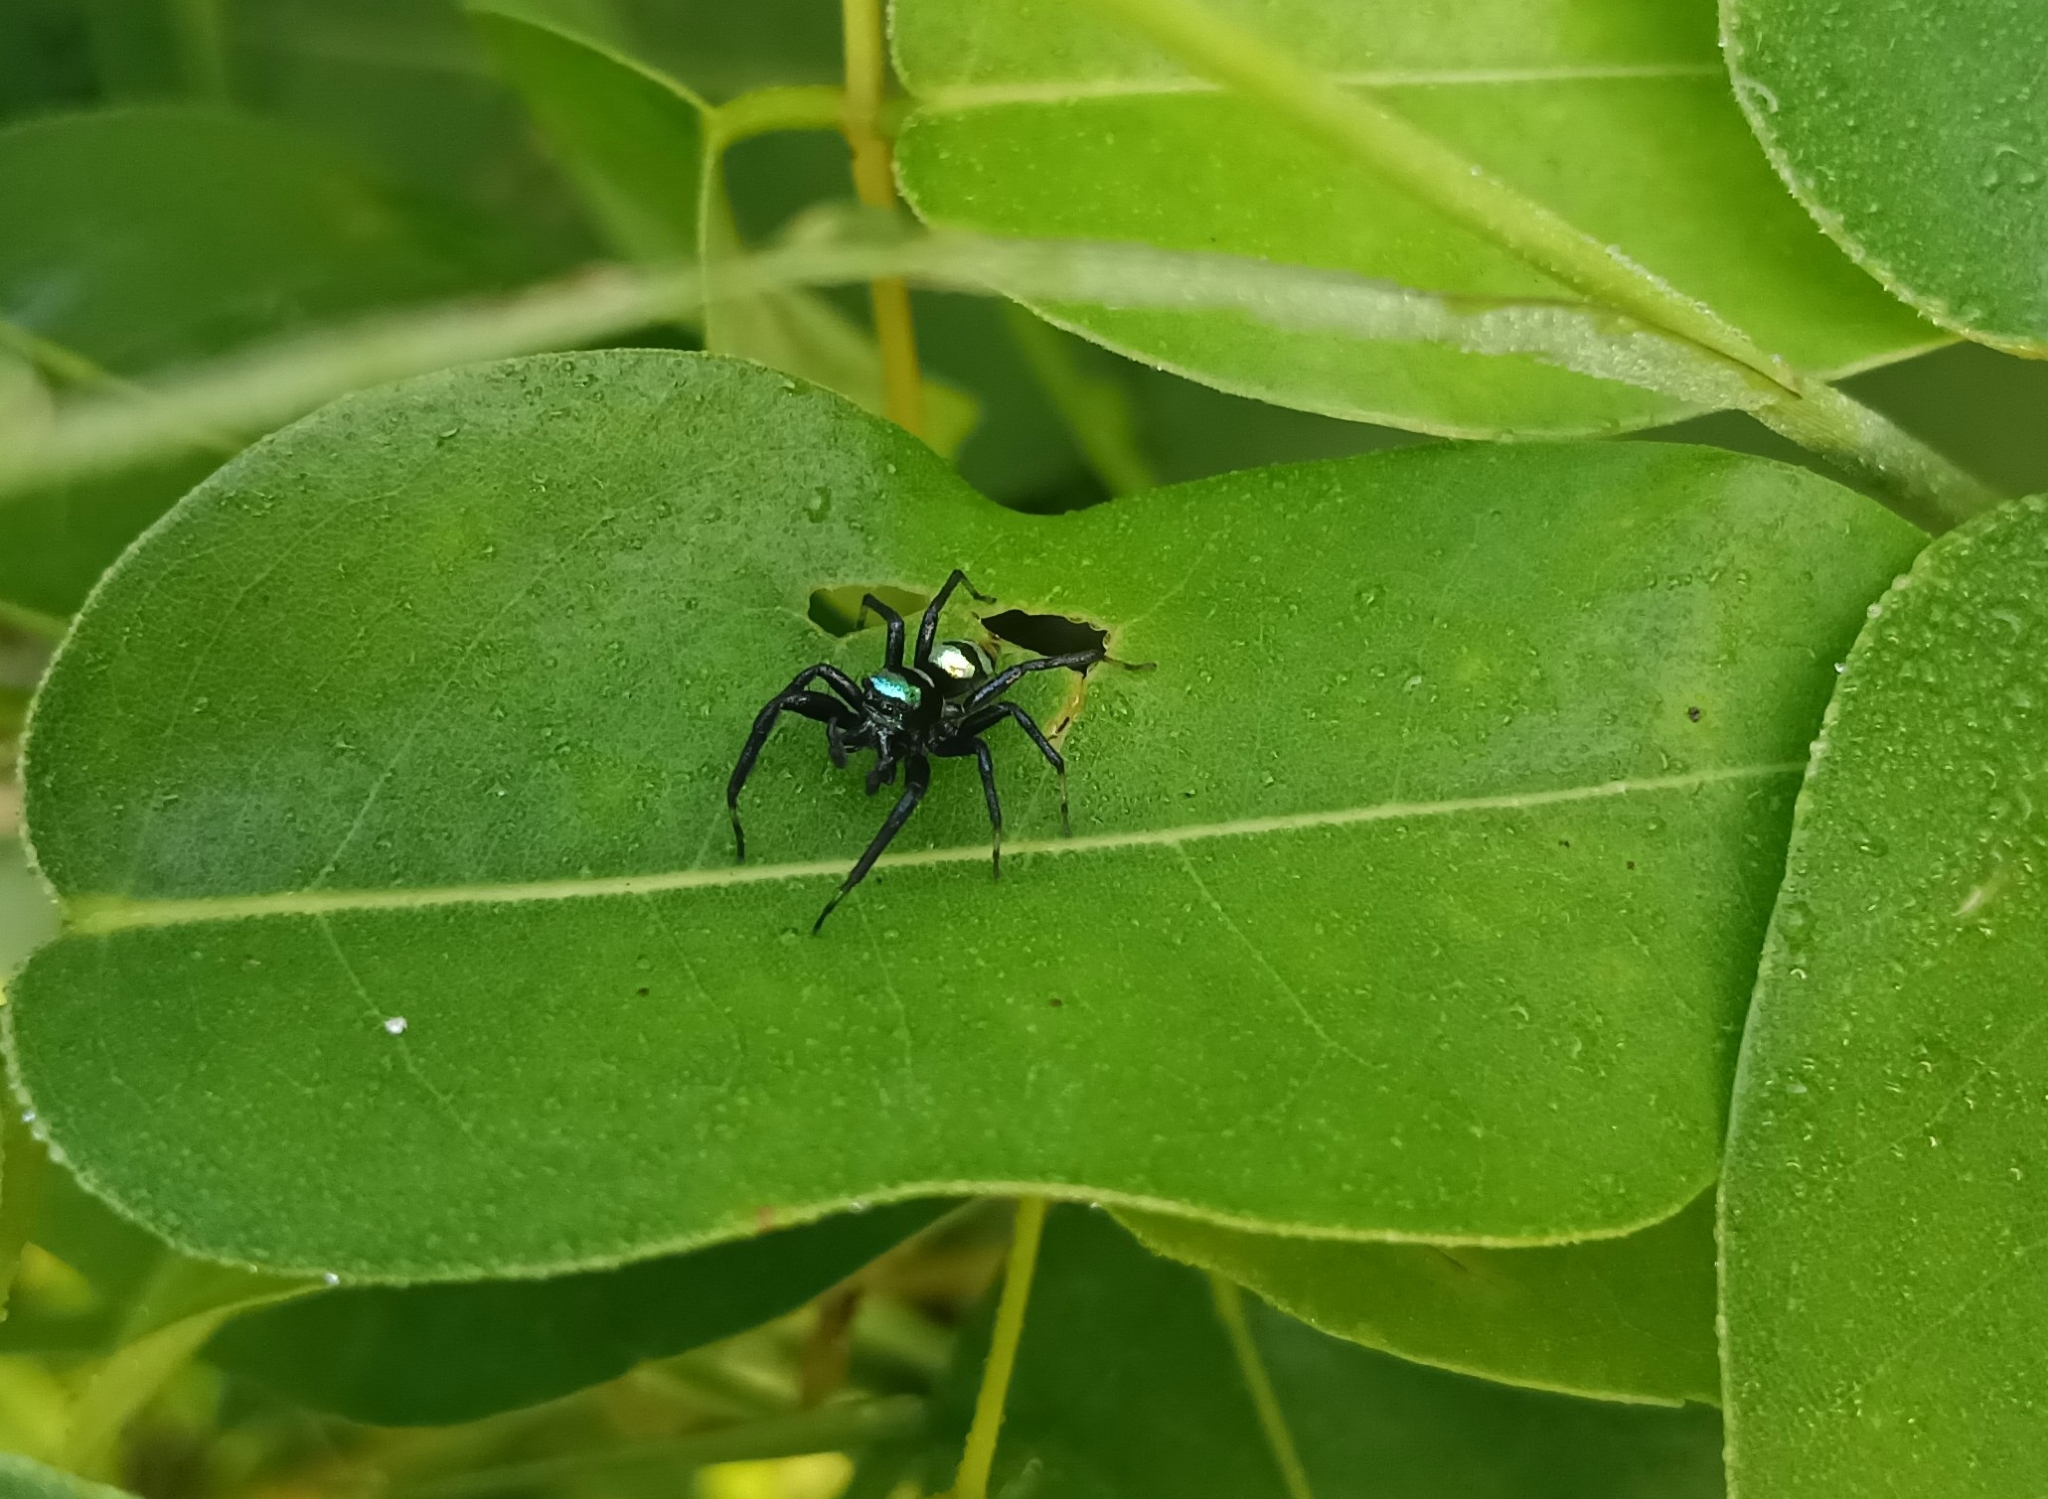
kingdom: Animalia
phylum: Arthropoda
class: Arachnida
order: Araneae
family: Salticidae
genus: Phintella
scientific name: Phintella vittata
